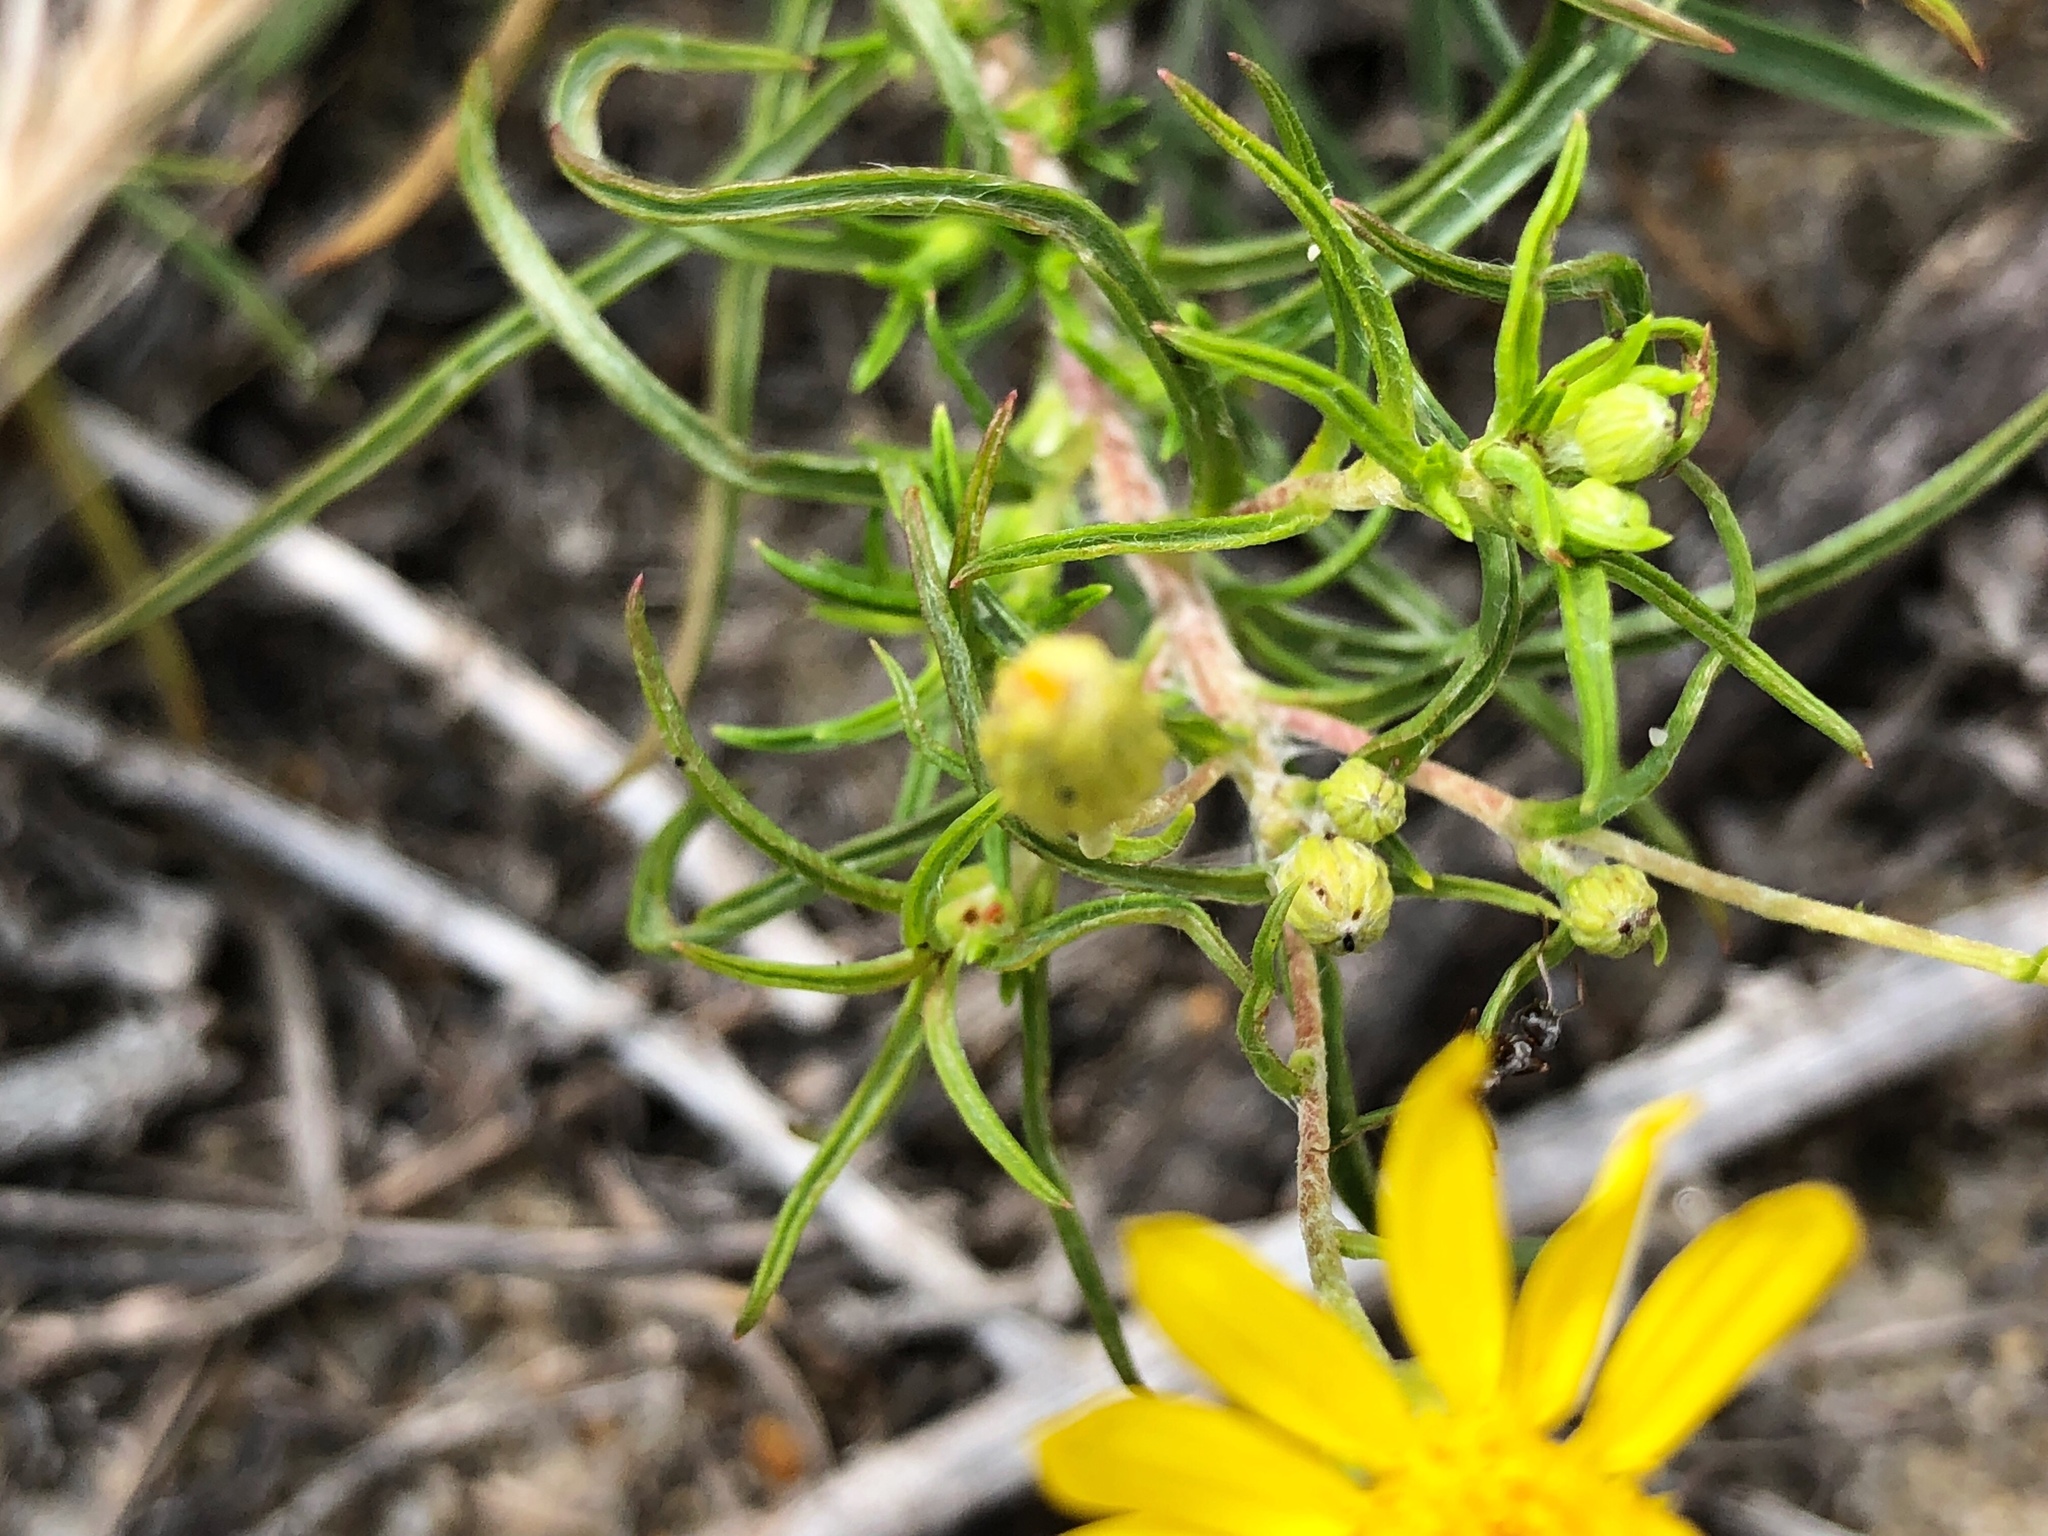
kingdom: Plantae
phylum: Tracheophyta
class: Magnoliopsida
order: Asterales
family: Asteraceae
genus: Pityopsis
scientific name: Pityopsis falcata
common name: Sickle-leaved goldenaster
